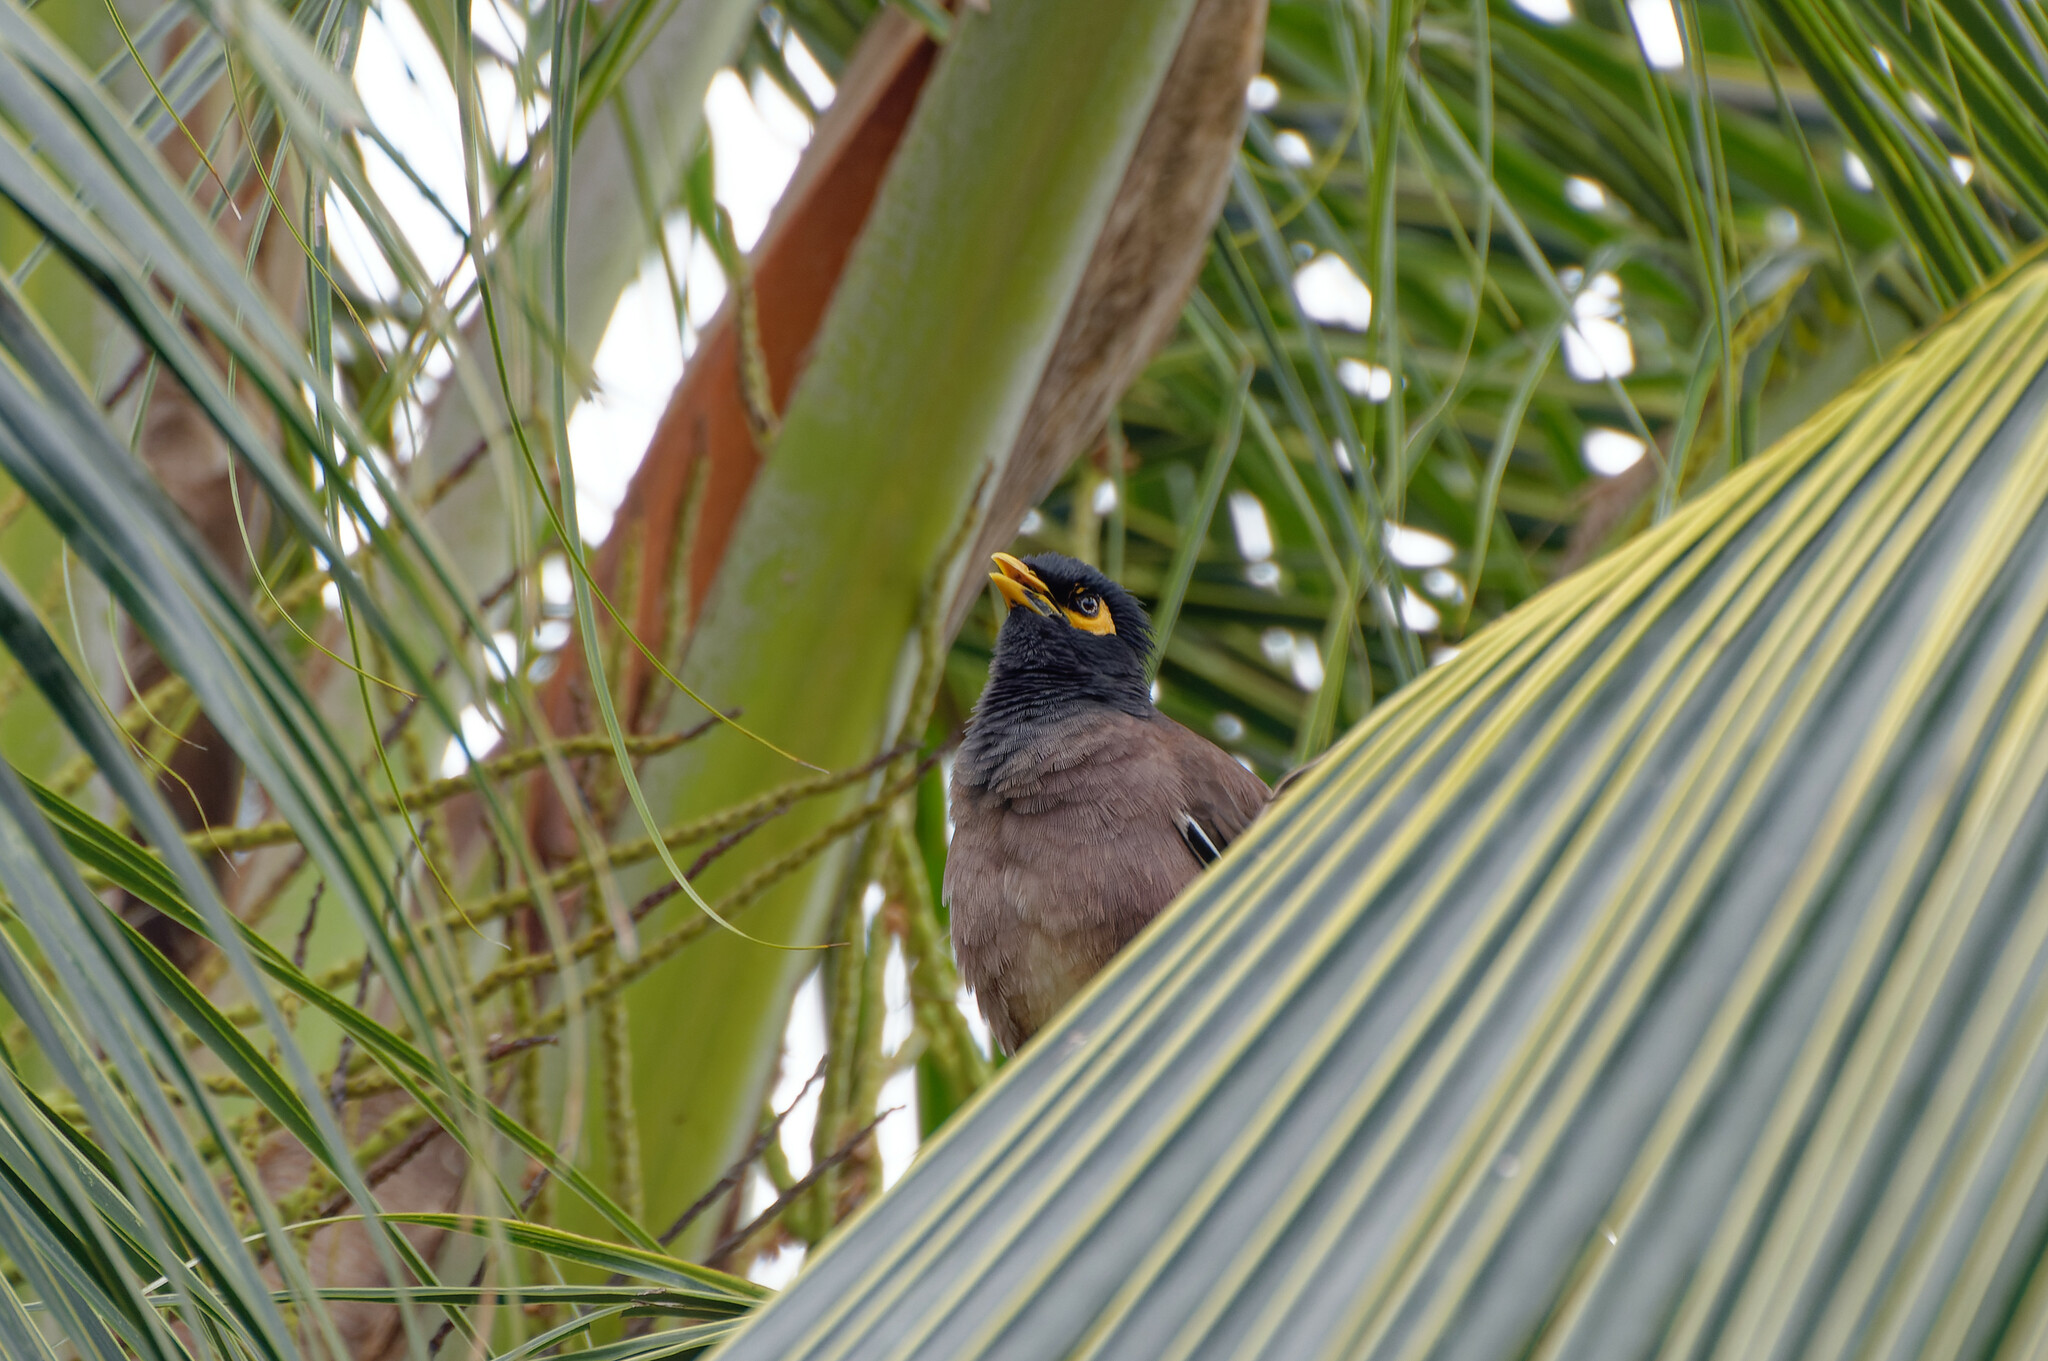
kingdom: Animalia
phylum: Chordata
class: Aves
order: Passeriformes
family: Sturnidae
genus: Acridotheres
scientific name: Acridotheres tristis
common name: Common myna
